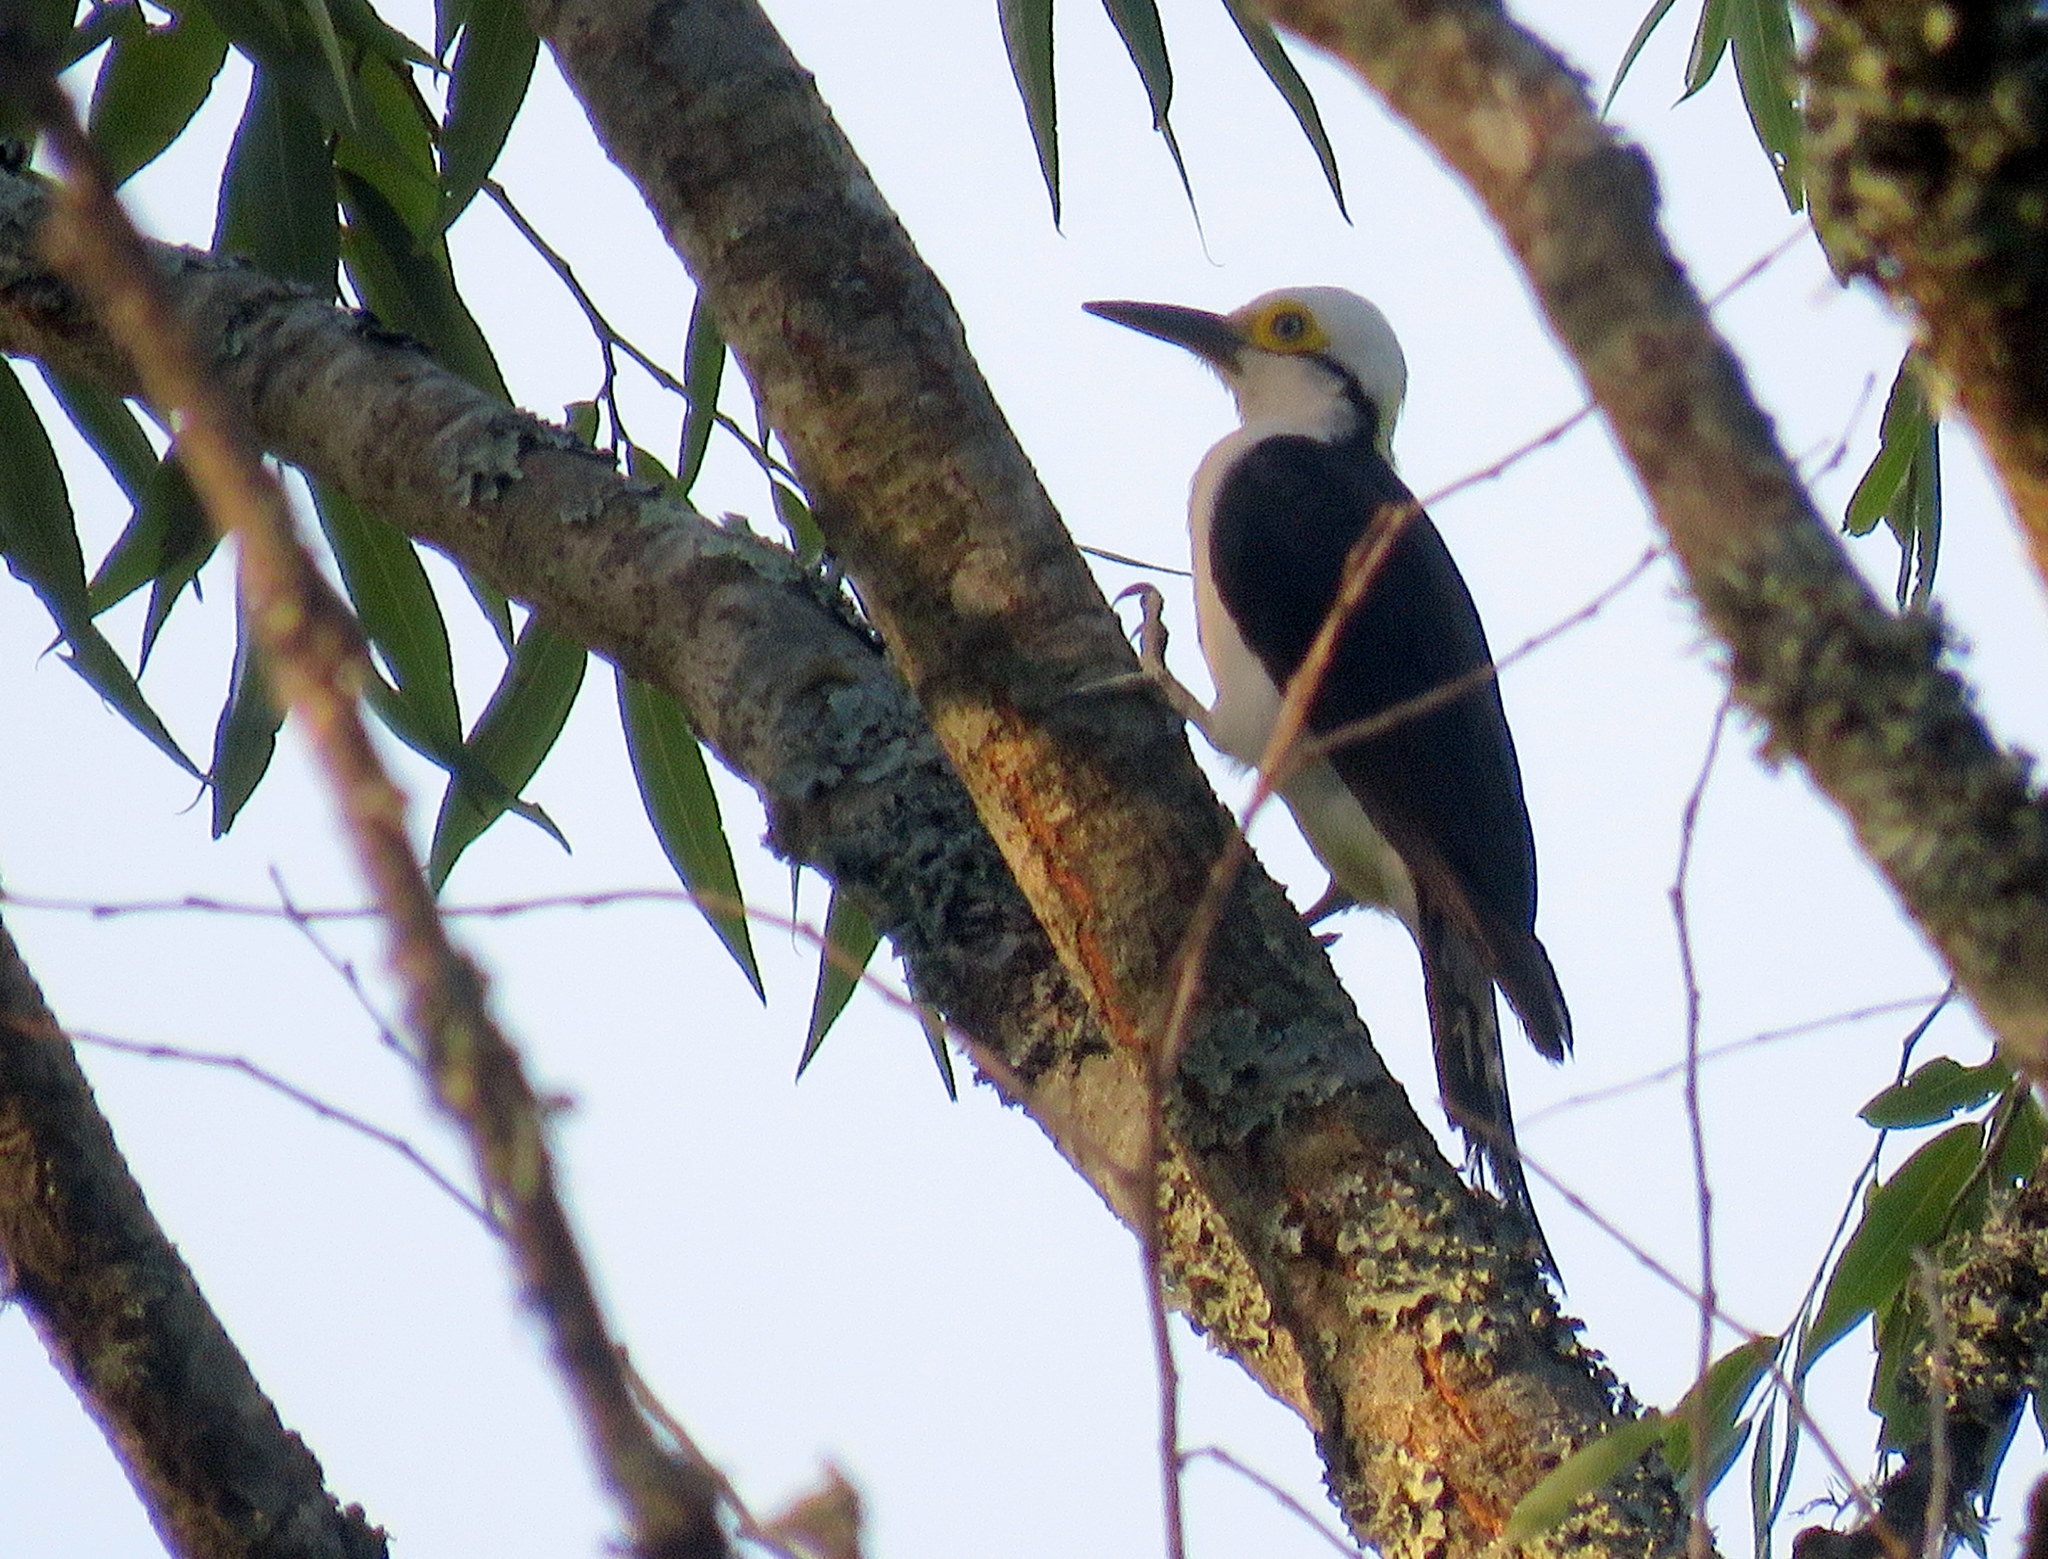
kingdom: Animalia
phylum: Chordata
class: Aves
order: Piciformes
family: Picidae
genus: Melanerpes
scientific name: Melanerpes candidus
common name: White woodpecker
